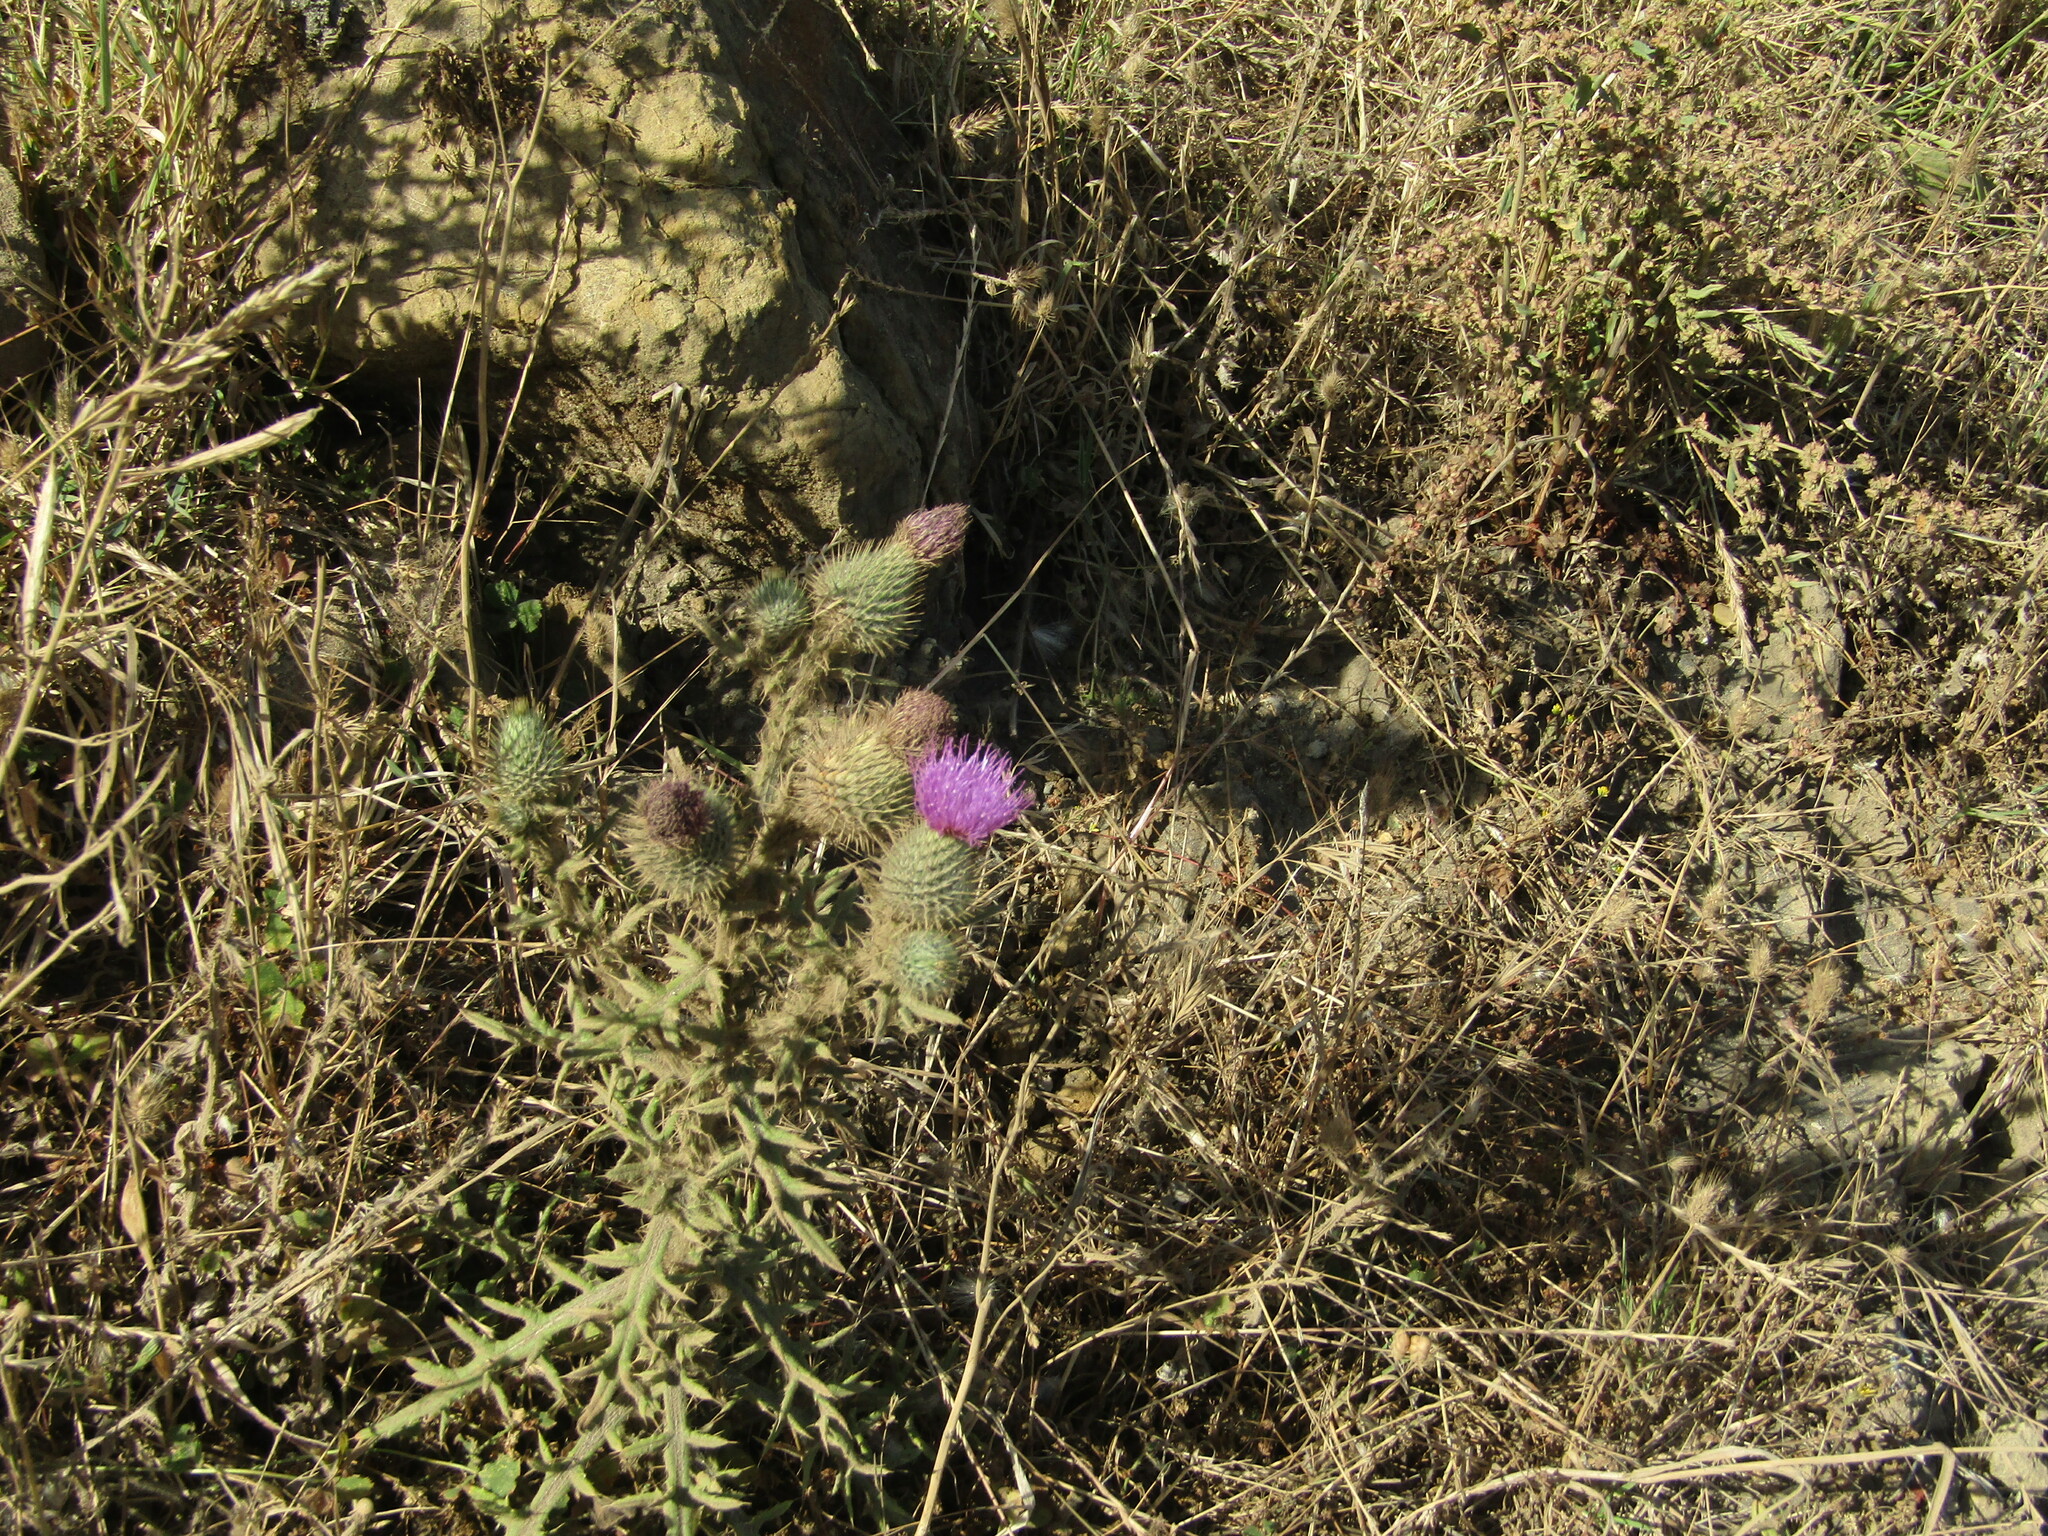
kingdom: Plantae
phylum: Tracheophyta
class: Magnoliopsida
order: Asterales
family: Asteraceae
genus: Cirsium
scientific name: Cirsium vulgare
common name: Bull thistle
